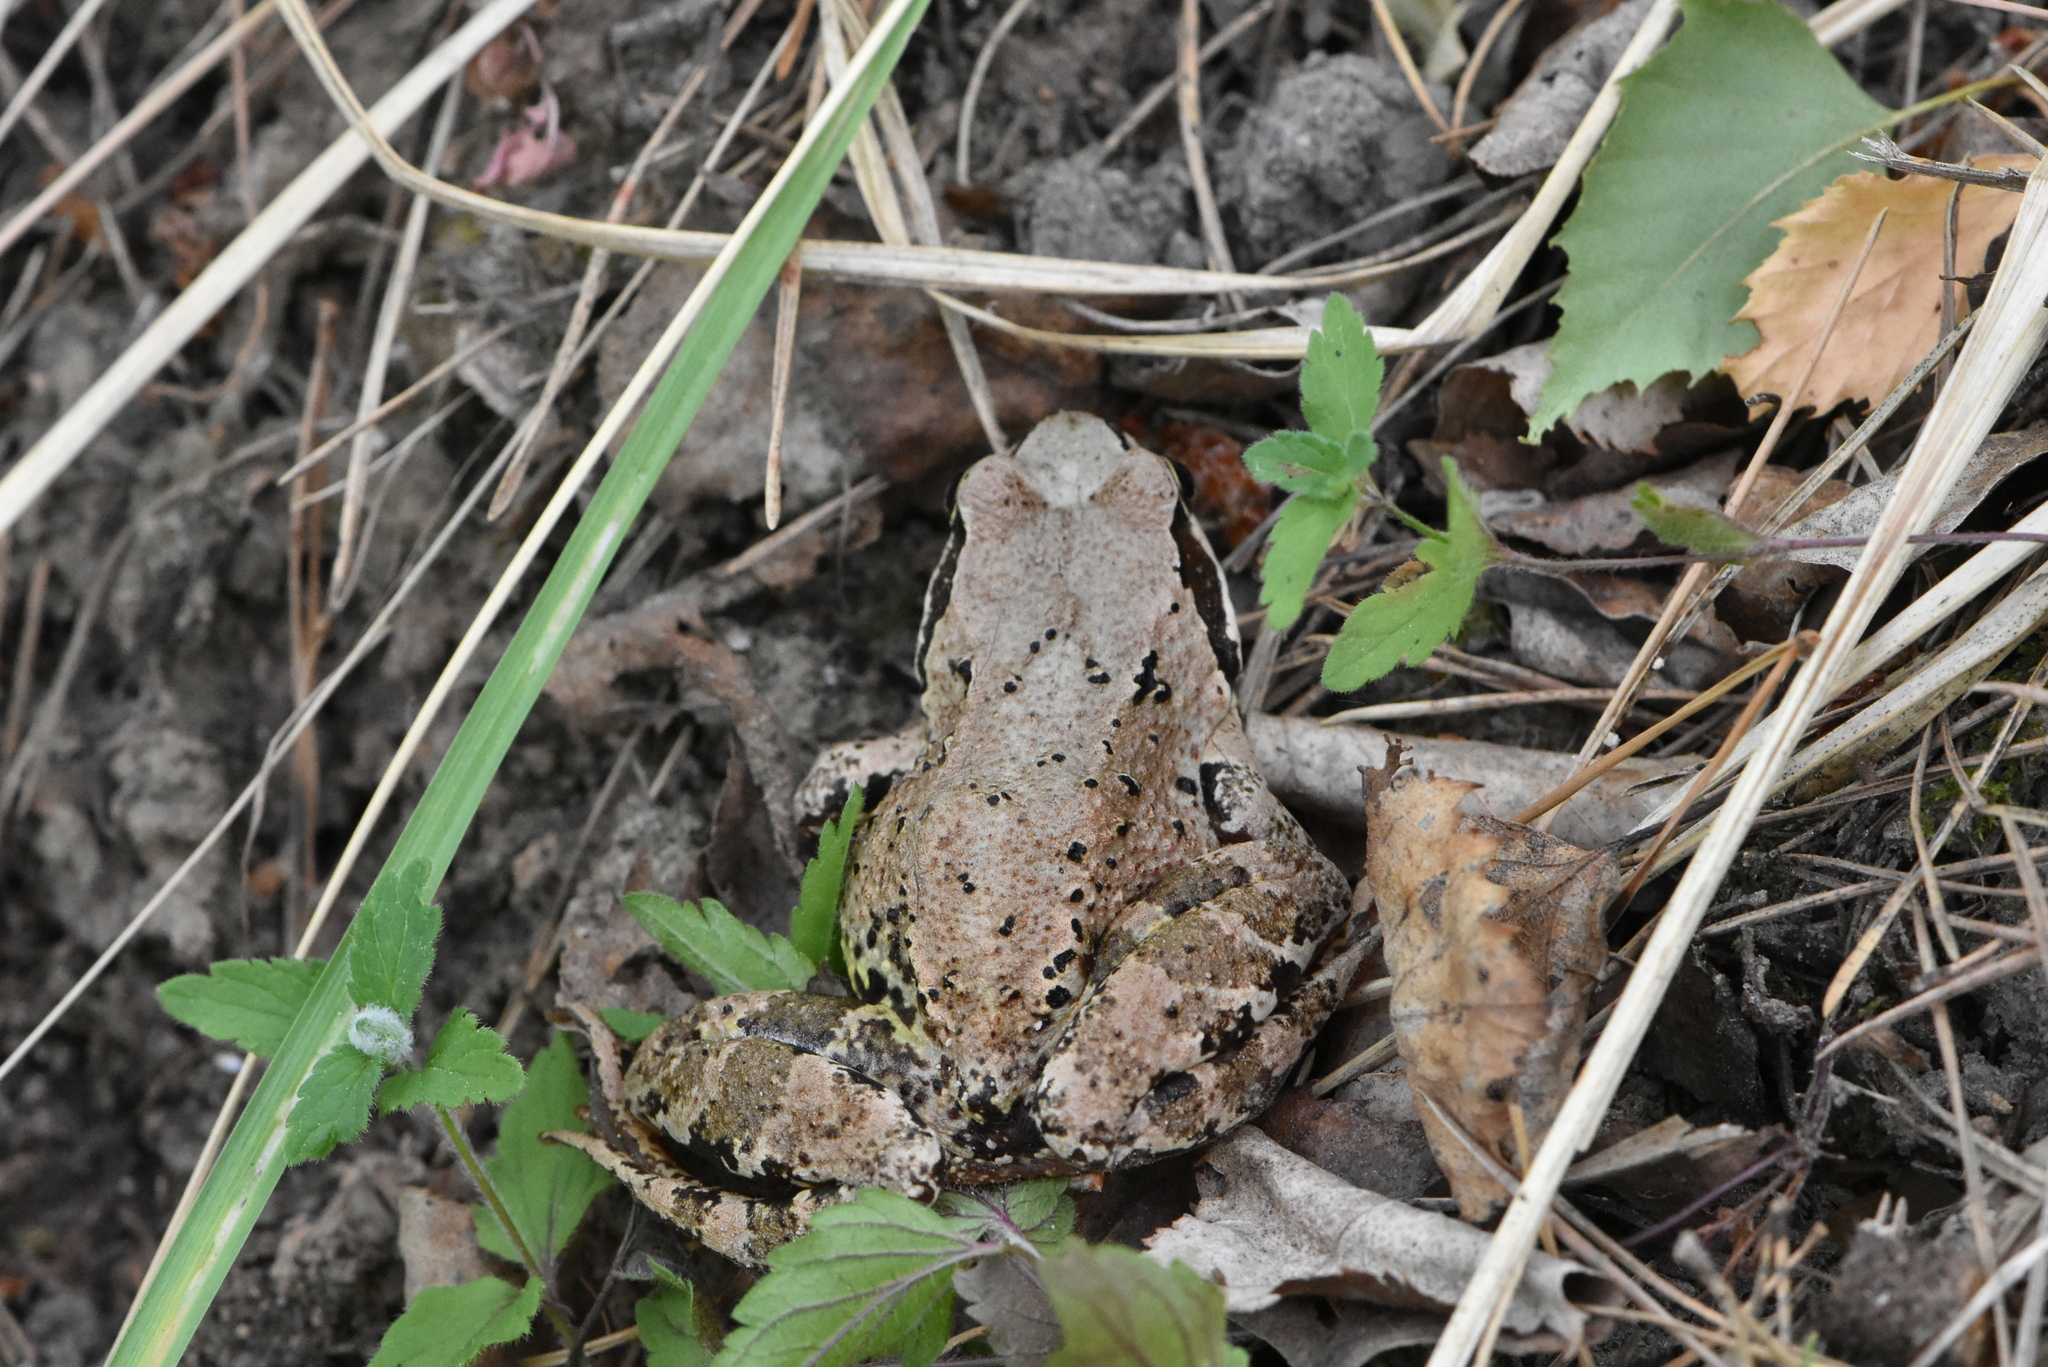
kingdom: Animalia
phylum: Chordata
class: Amphibia
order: Anura
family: Ranidae
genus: Rana
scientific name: Rana temporaria
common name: Common frog
